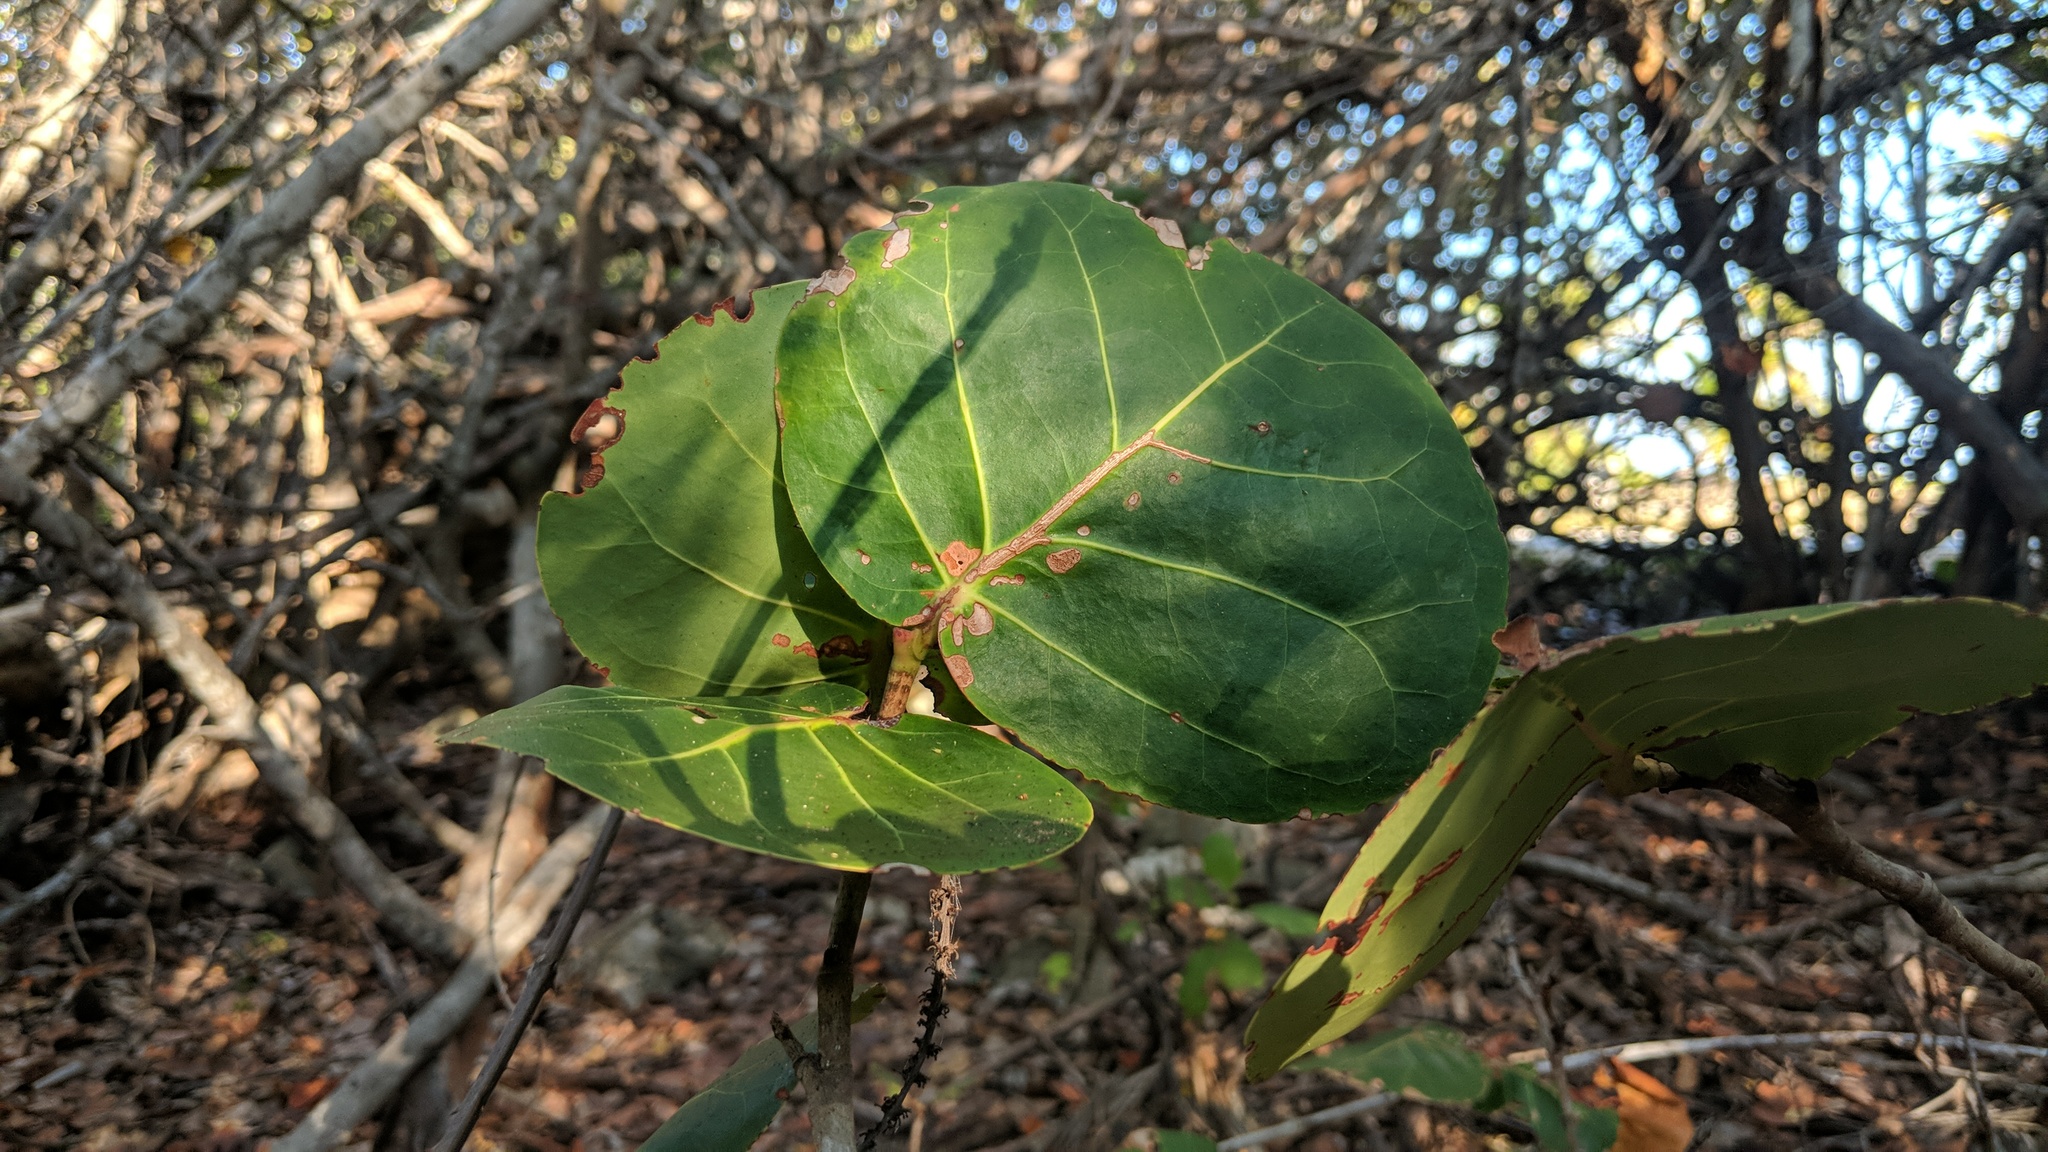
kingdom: Plantae
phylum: Tracheophyta
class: Magnoliopsida
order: Caryophyllales
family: Polygonaceae
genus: Coccoloba
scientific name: Coccoloba uvifera
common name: Seagrape
